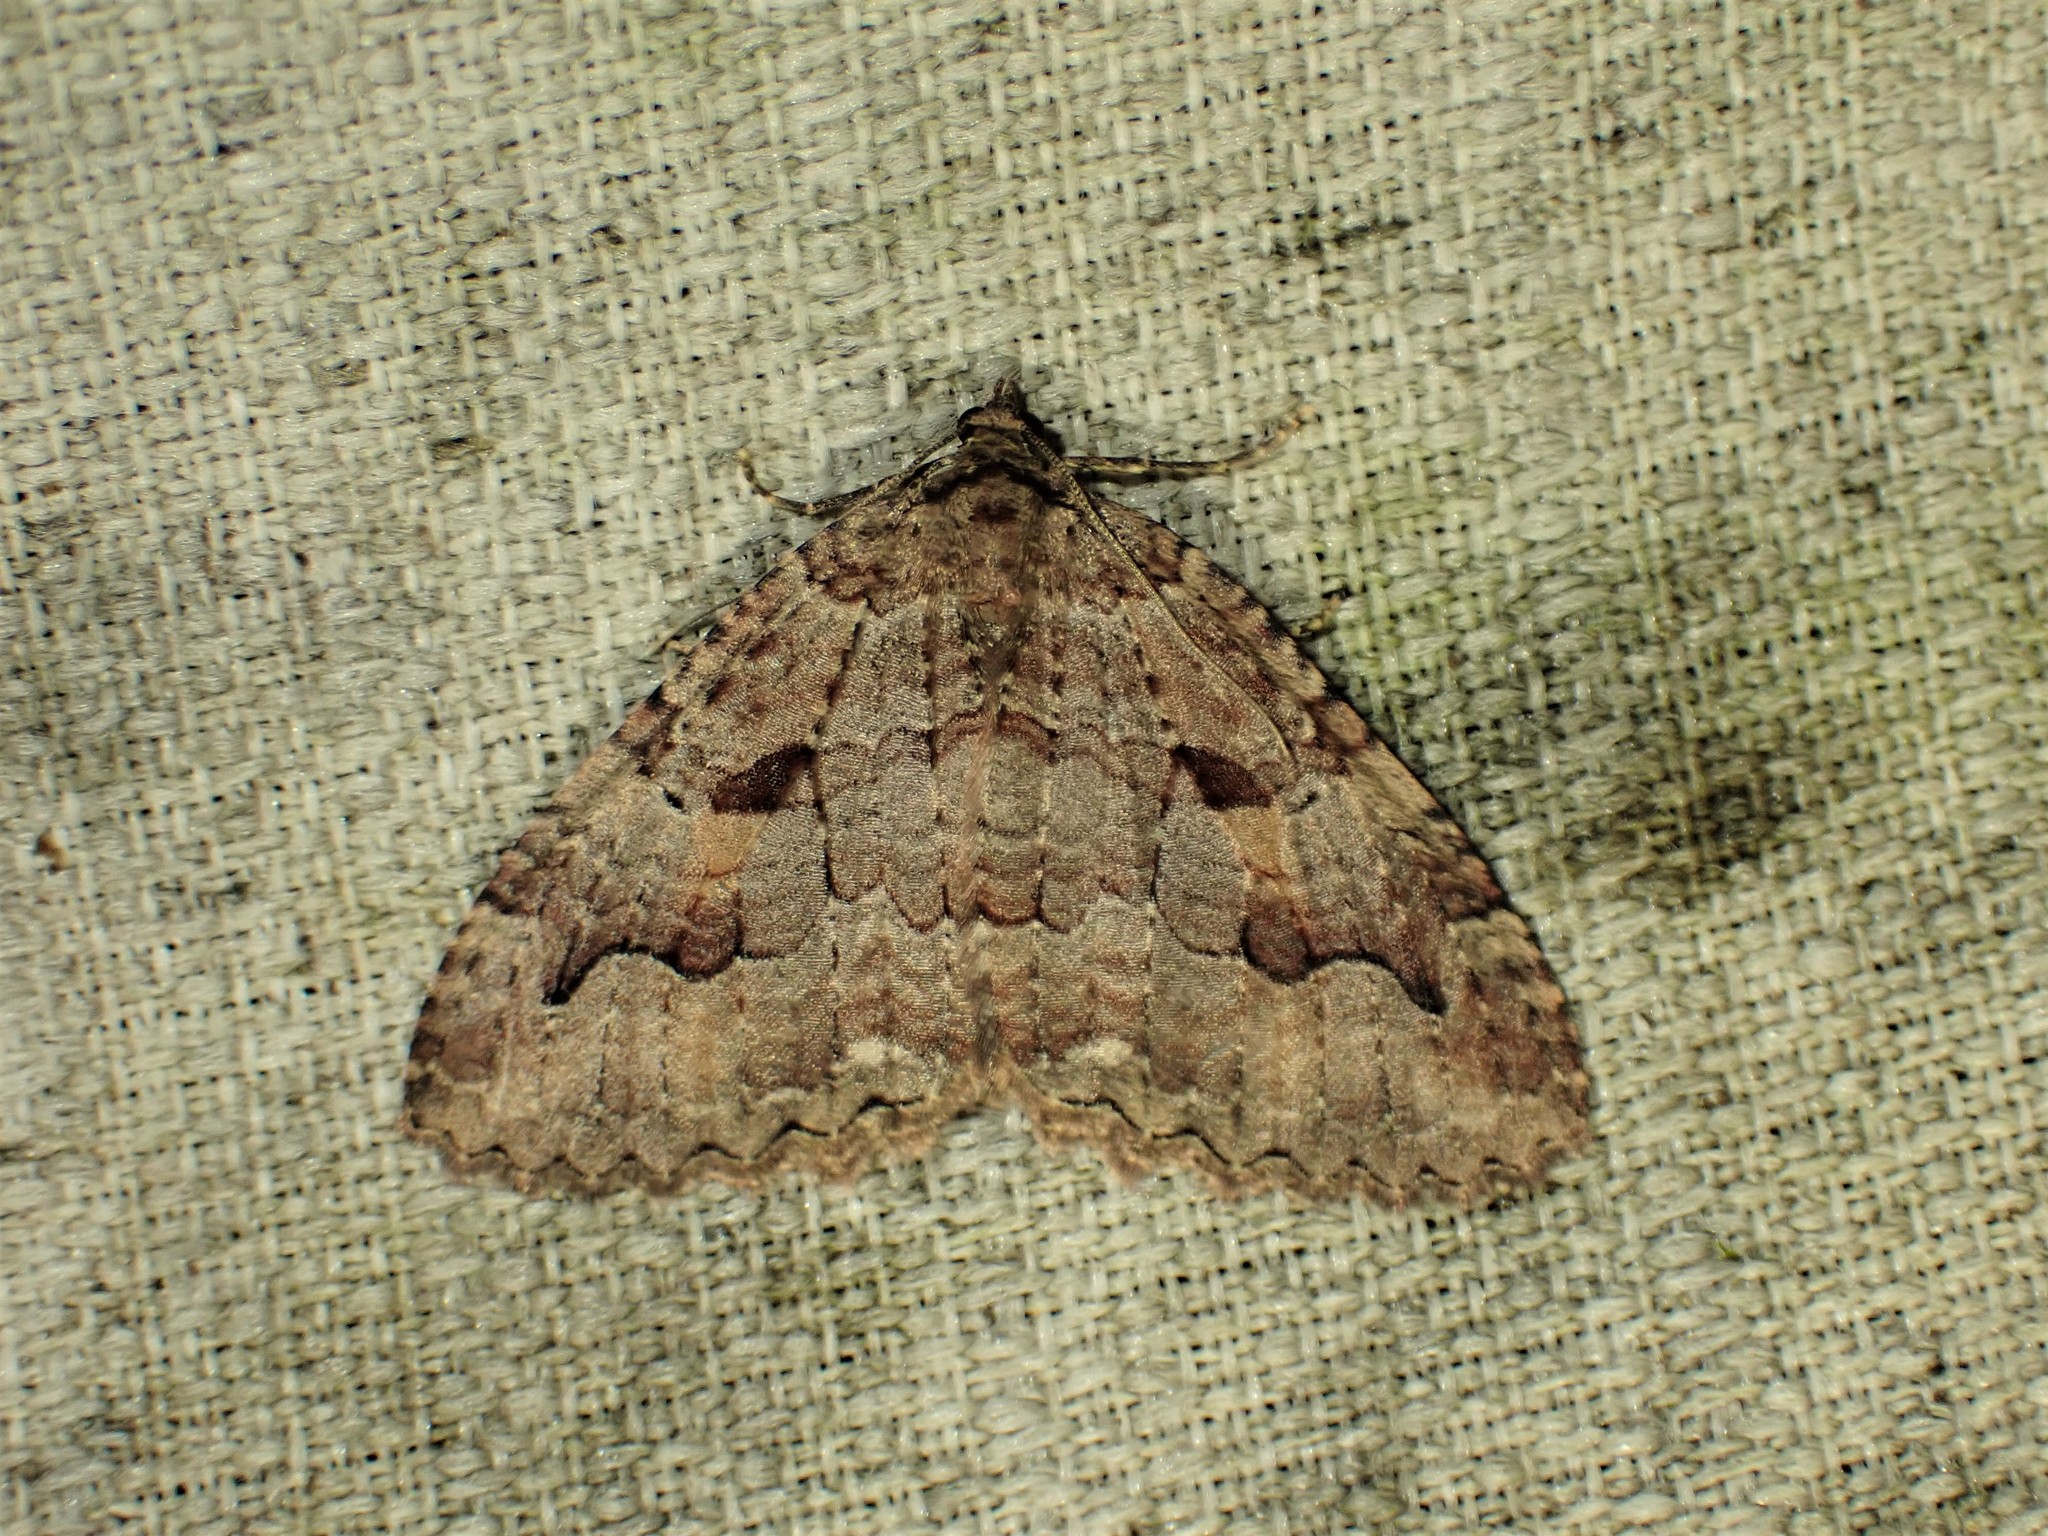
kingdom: Animalia
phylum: Arthropoda
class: Insecta
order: Lepidoptera
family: Geometridae
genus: Triphosa
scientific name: Triphosa haesitata
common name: Tissue moth
